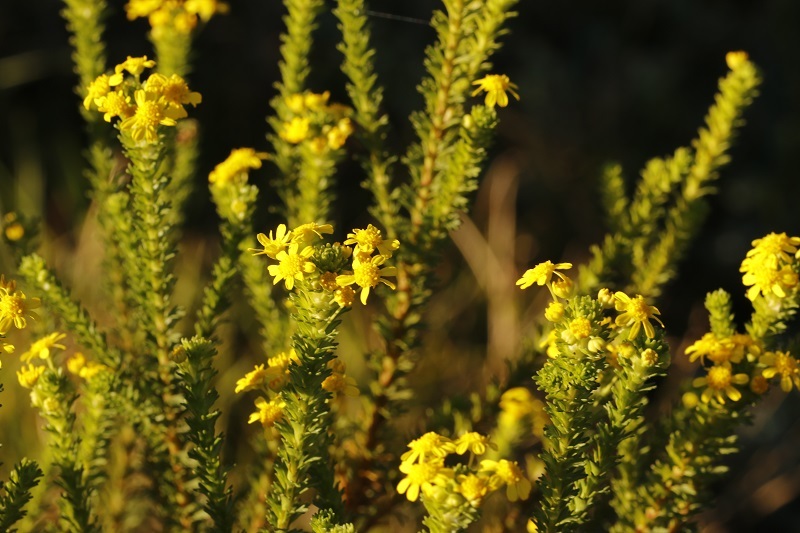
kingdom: Plantae
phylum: Tracheophyta
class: Magnoliopsida
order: Asterales
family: Asteraceae
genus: Euryops
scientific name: Euryops virgineus
